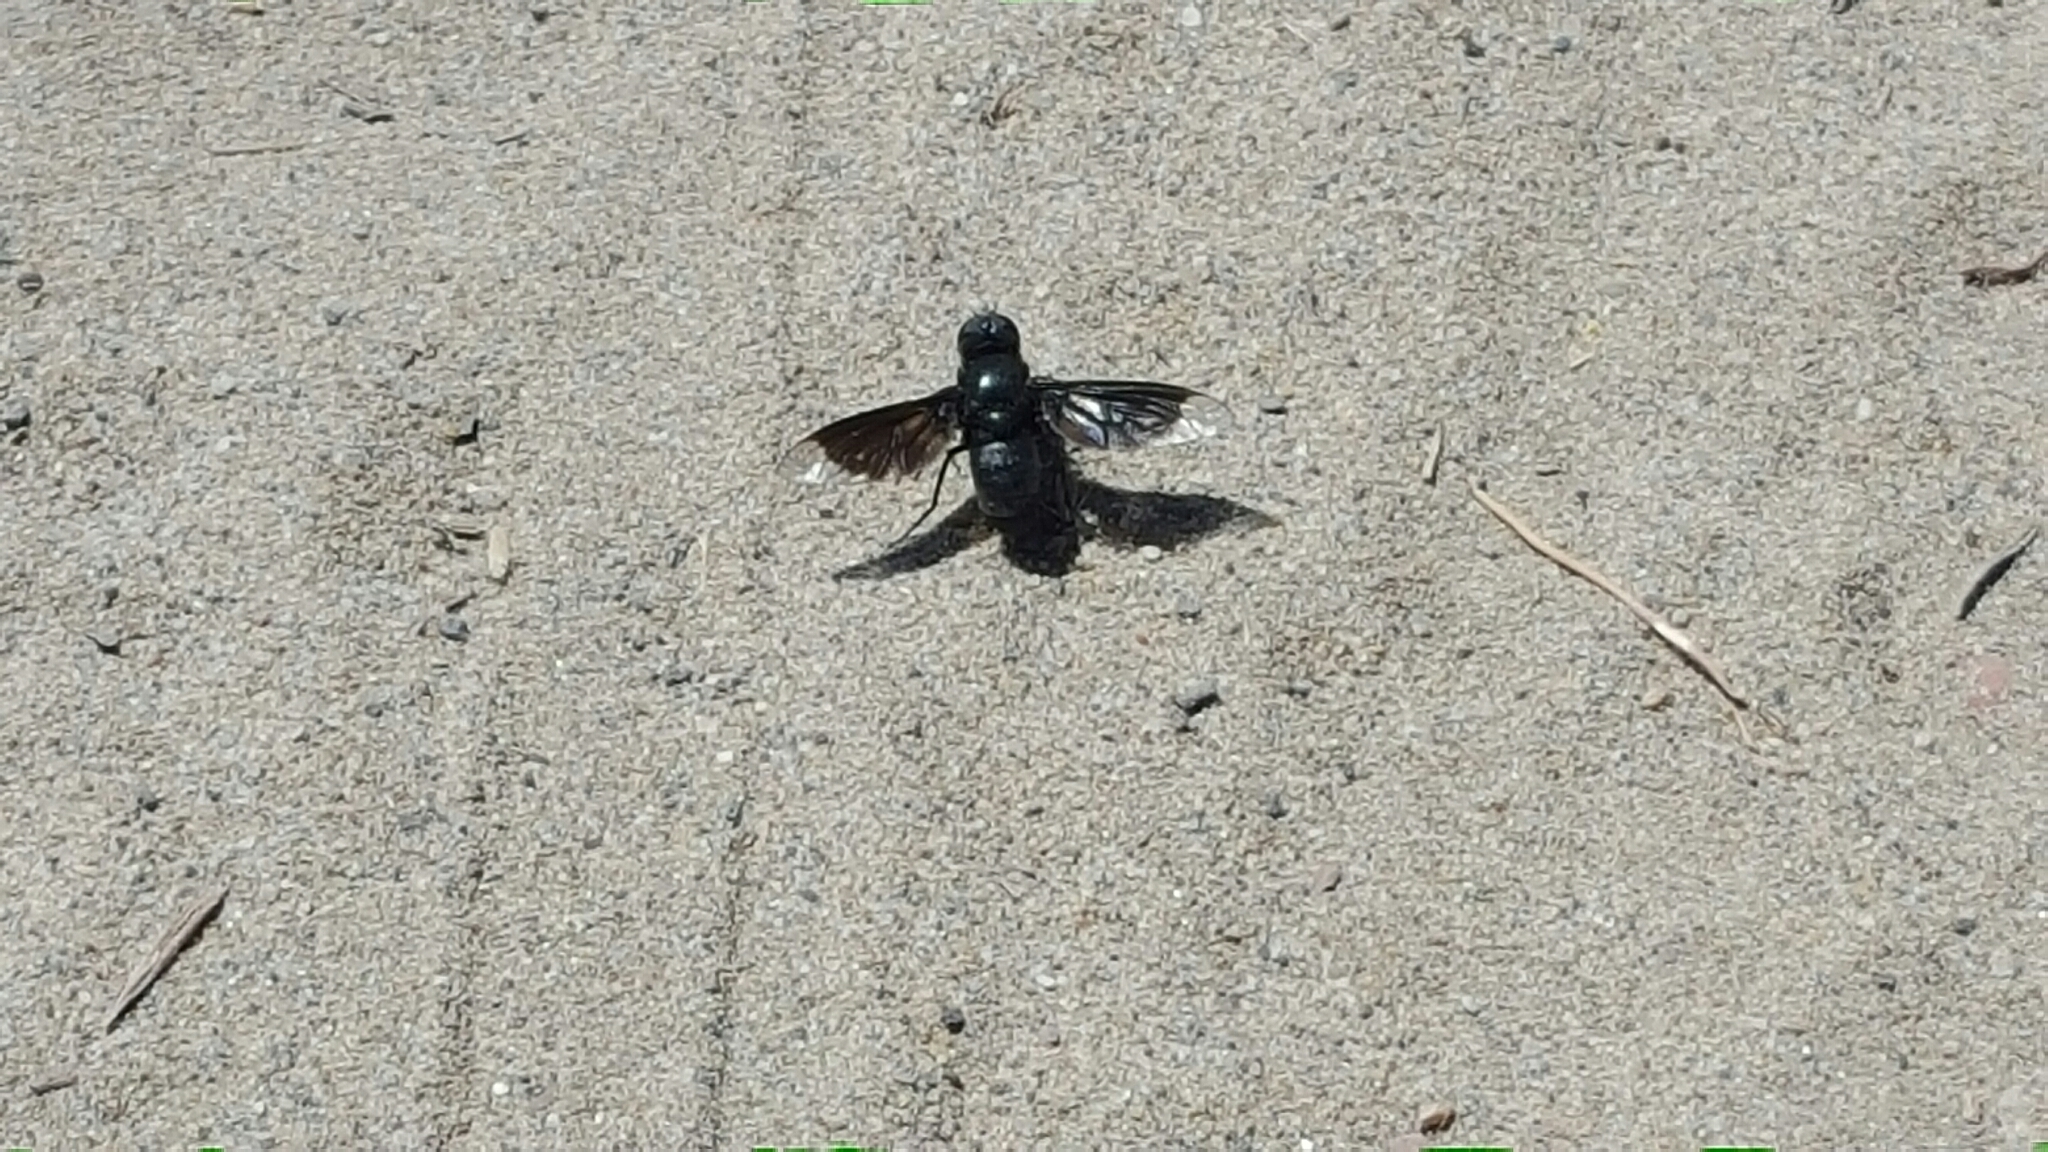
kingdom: Animalia
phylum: Arthropoda
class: Insecta
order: Diptera
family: Bombyliidae
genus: Thyridanthrax
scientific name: Thyridanthrax atratus
